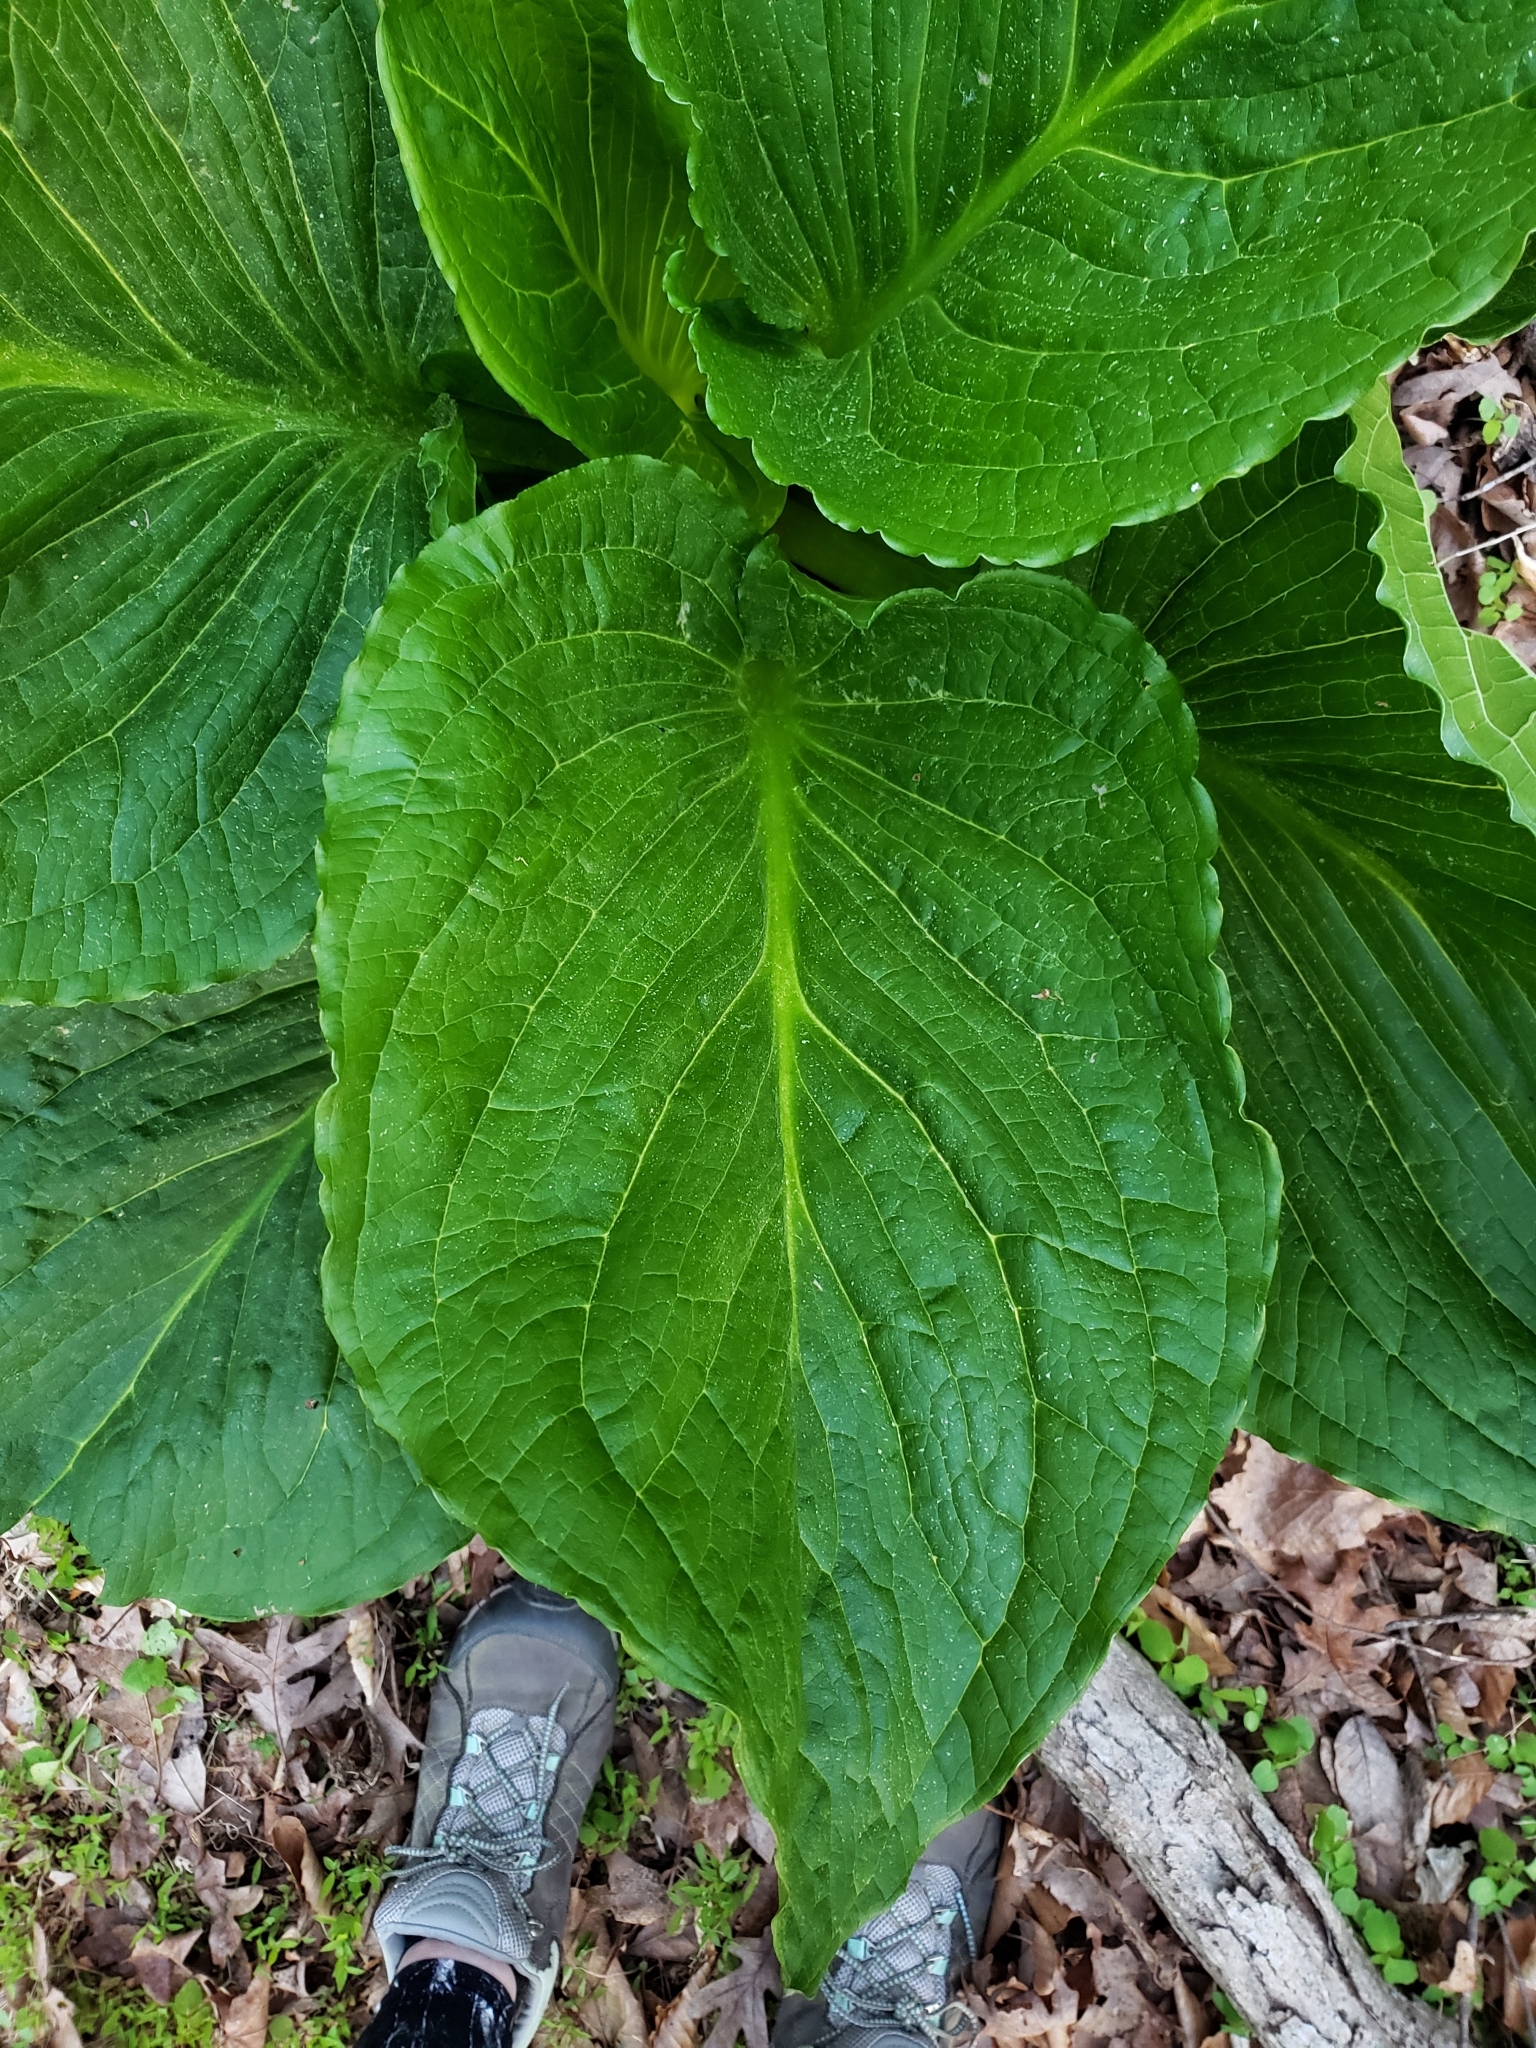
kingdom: Plantae
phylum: Tracheophyta
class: Liliopsida
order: Alismatales
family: Araceae
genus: Symplocarpus
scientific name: Symplocarpus foetidus
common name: Eastern skunk cabbage
